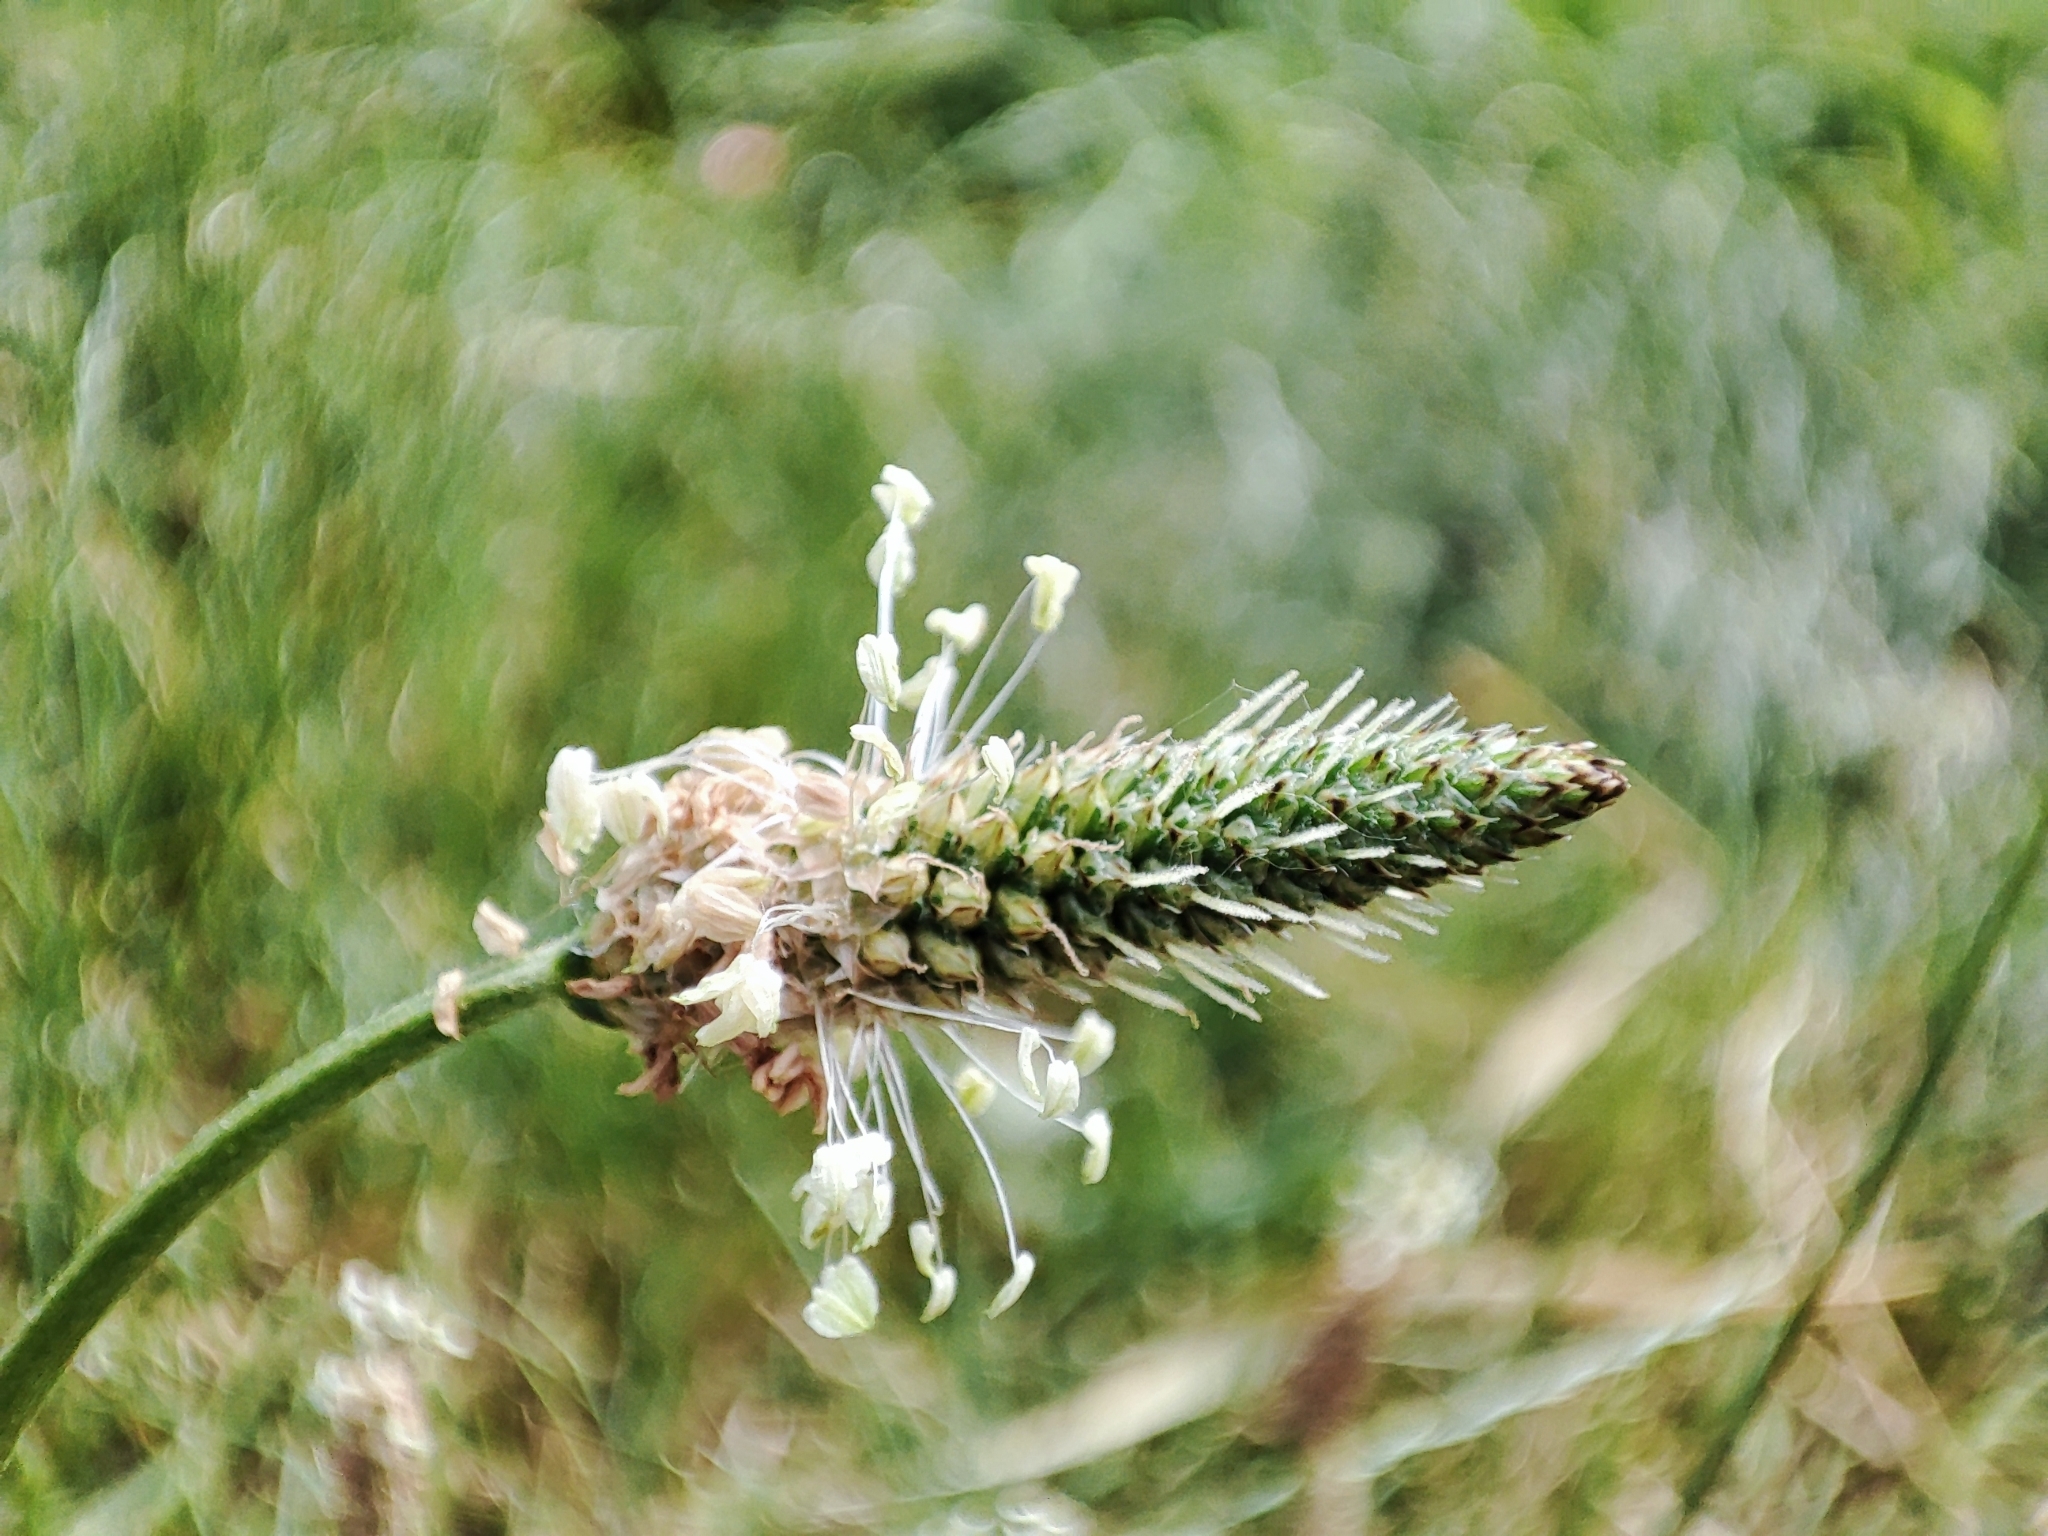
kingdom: Plantae
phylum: Tracheophyta
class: Magnoliopsida
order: Lamiales
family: Plantaginaceae
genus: Plantago
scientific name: Plantago lanceolata
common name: Ribwort plantain
